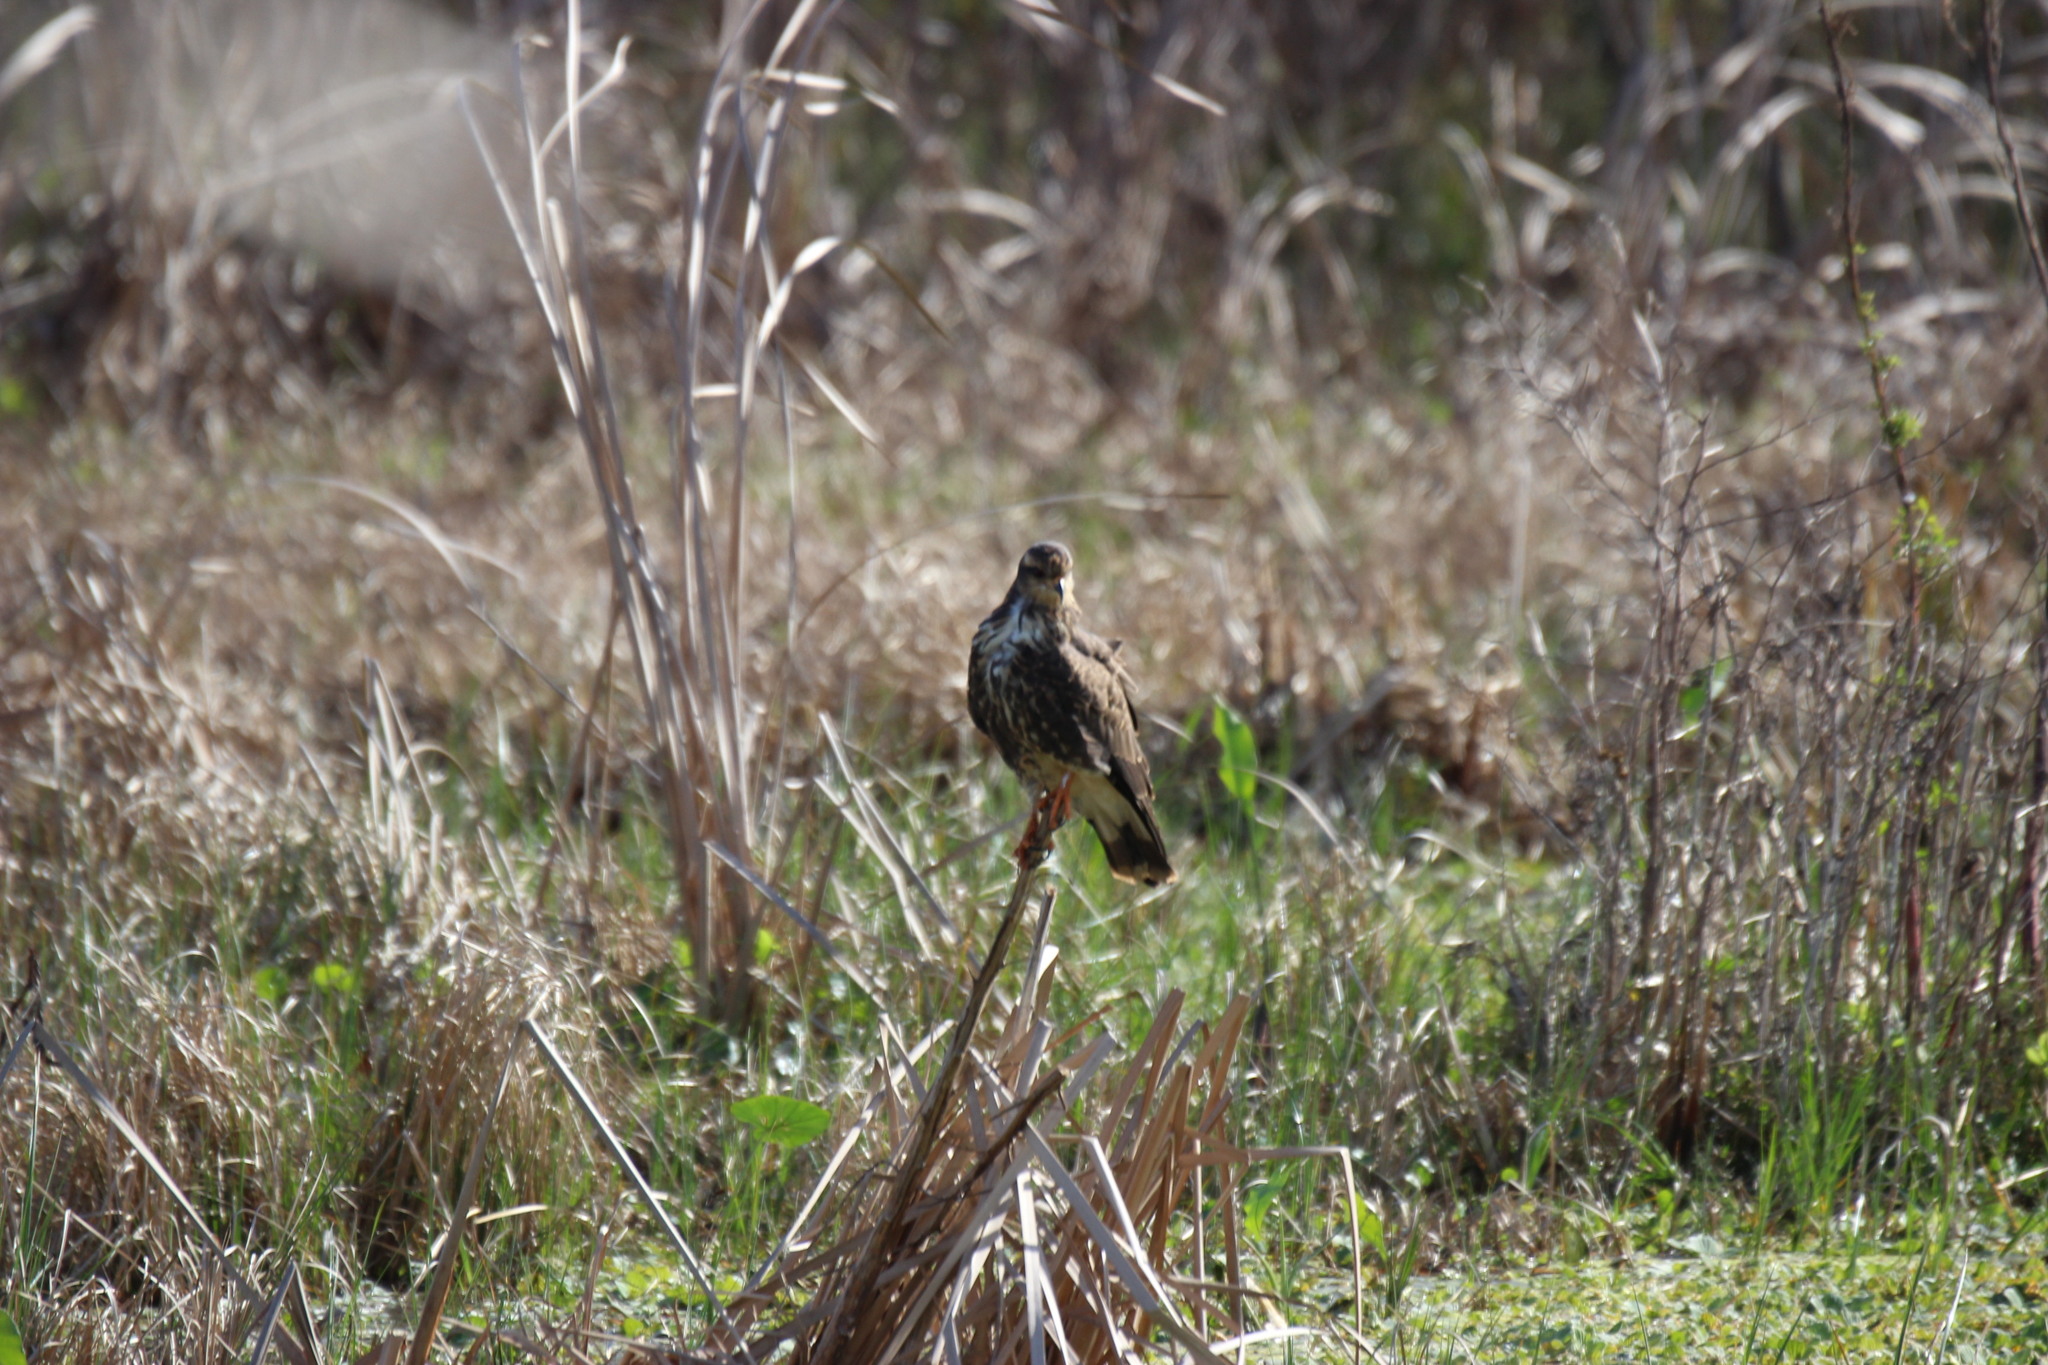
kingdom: Animalia
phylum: Chordata
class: Aves
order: Accipitriformes
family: Accipitridae
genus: Rostrhamus
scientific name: Rostrhamus sociabilis
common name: Snail kite
